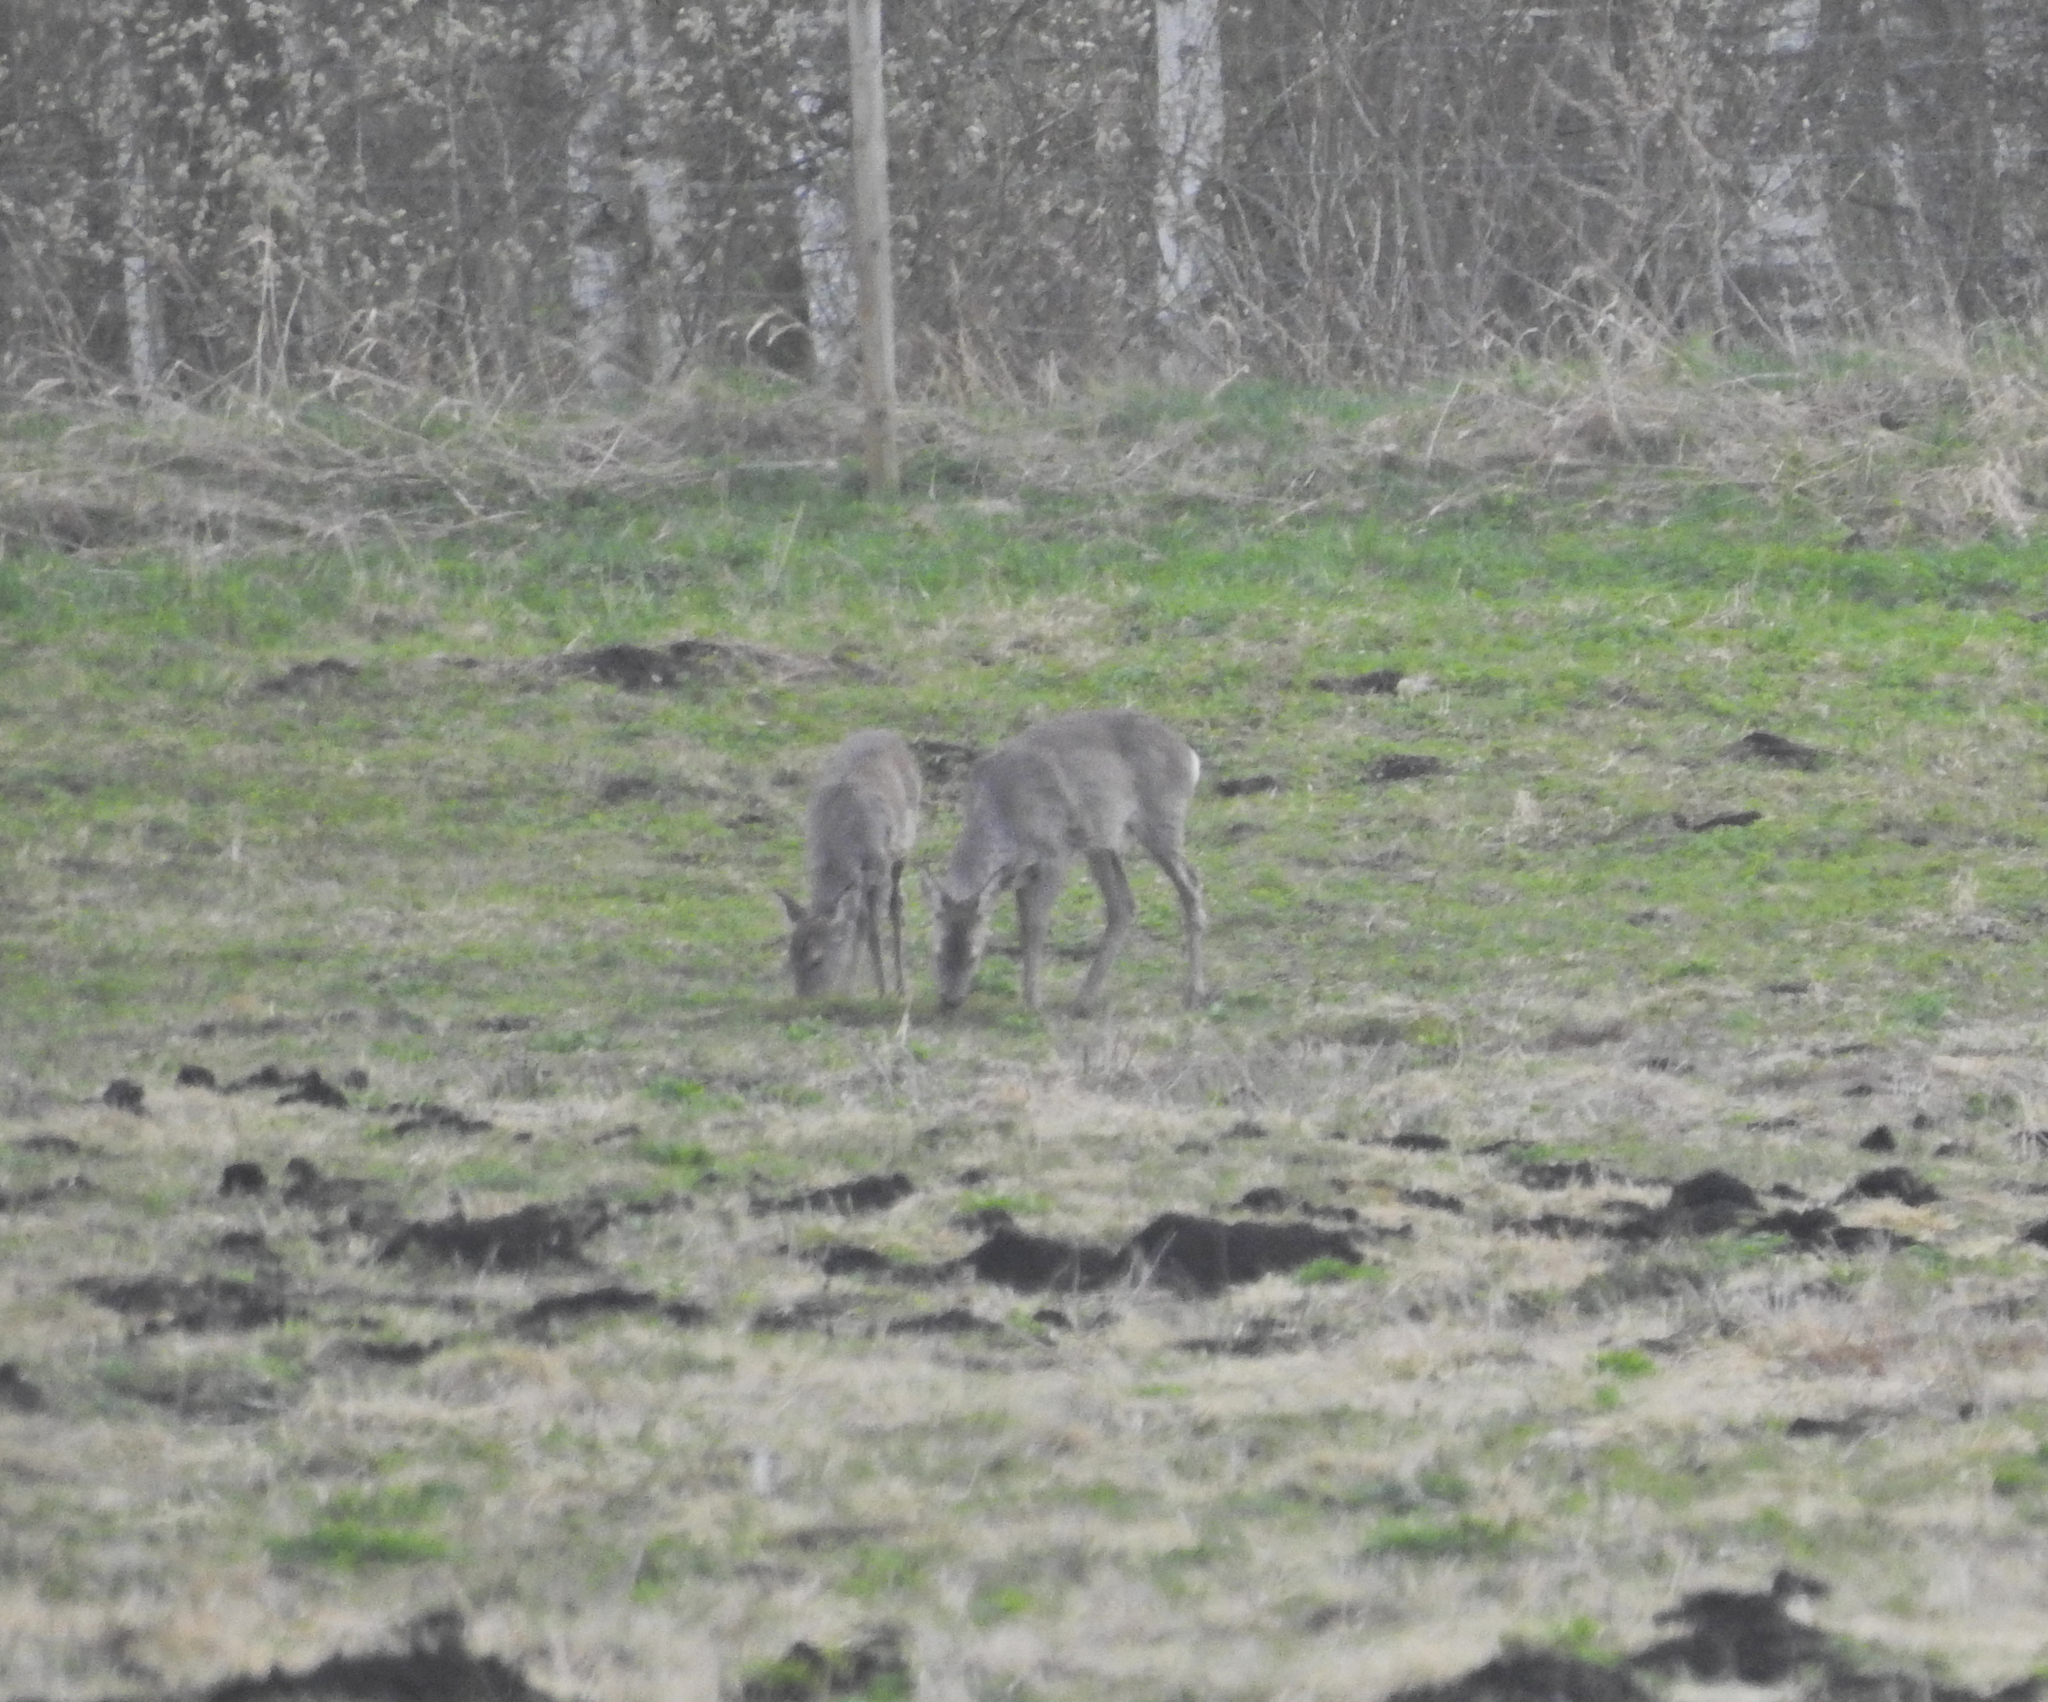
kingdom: Animalia
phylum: Chordata
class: Mammalia
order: Artiodactyla
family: Cervidae
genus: Capreolus
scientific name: Capreolus capreolus
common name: Western roe deer
